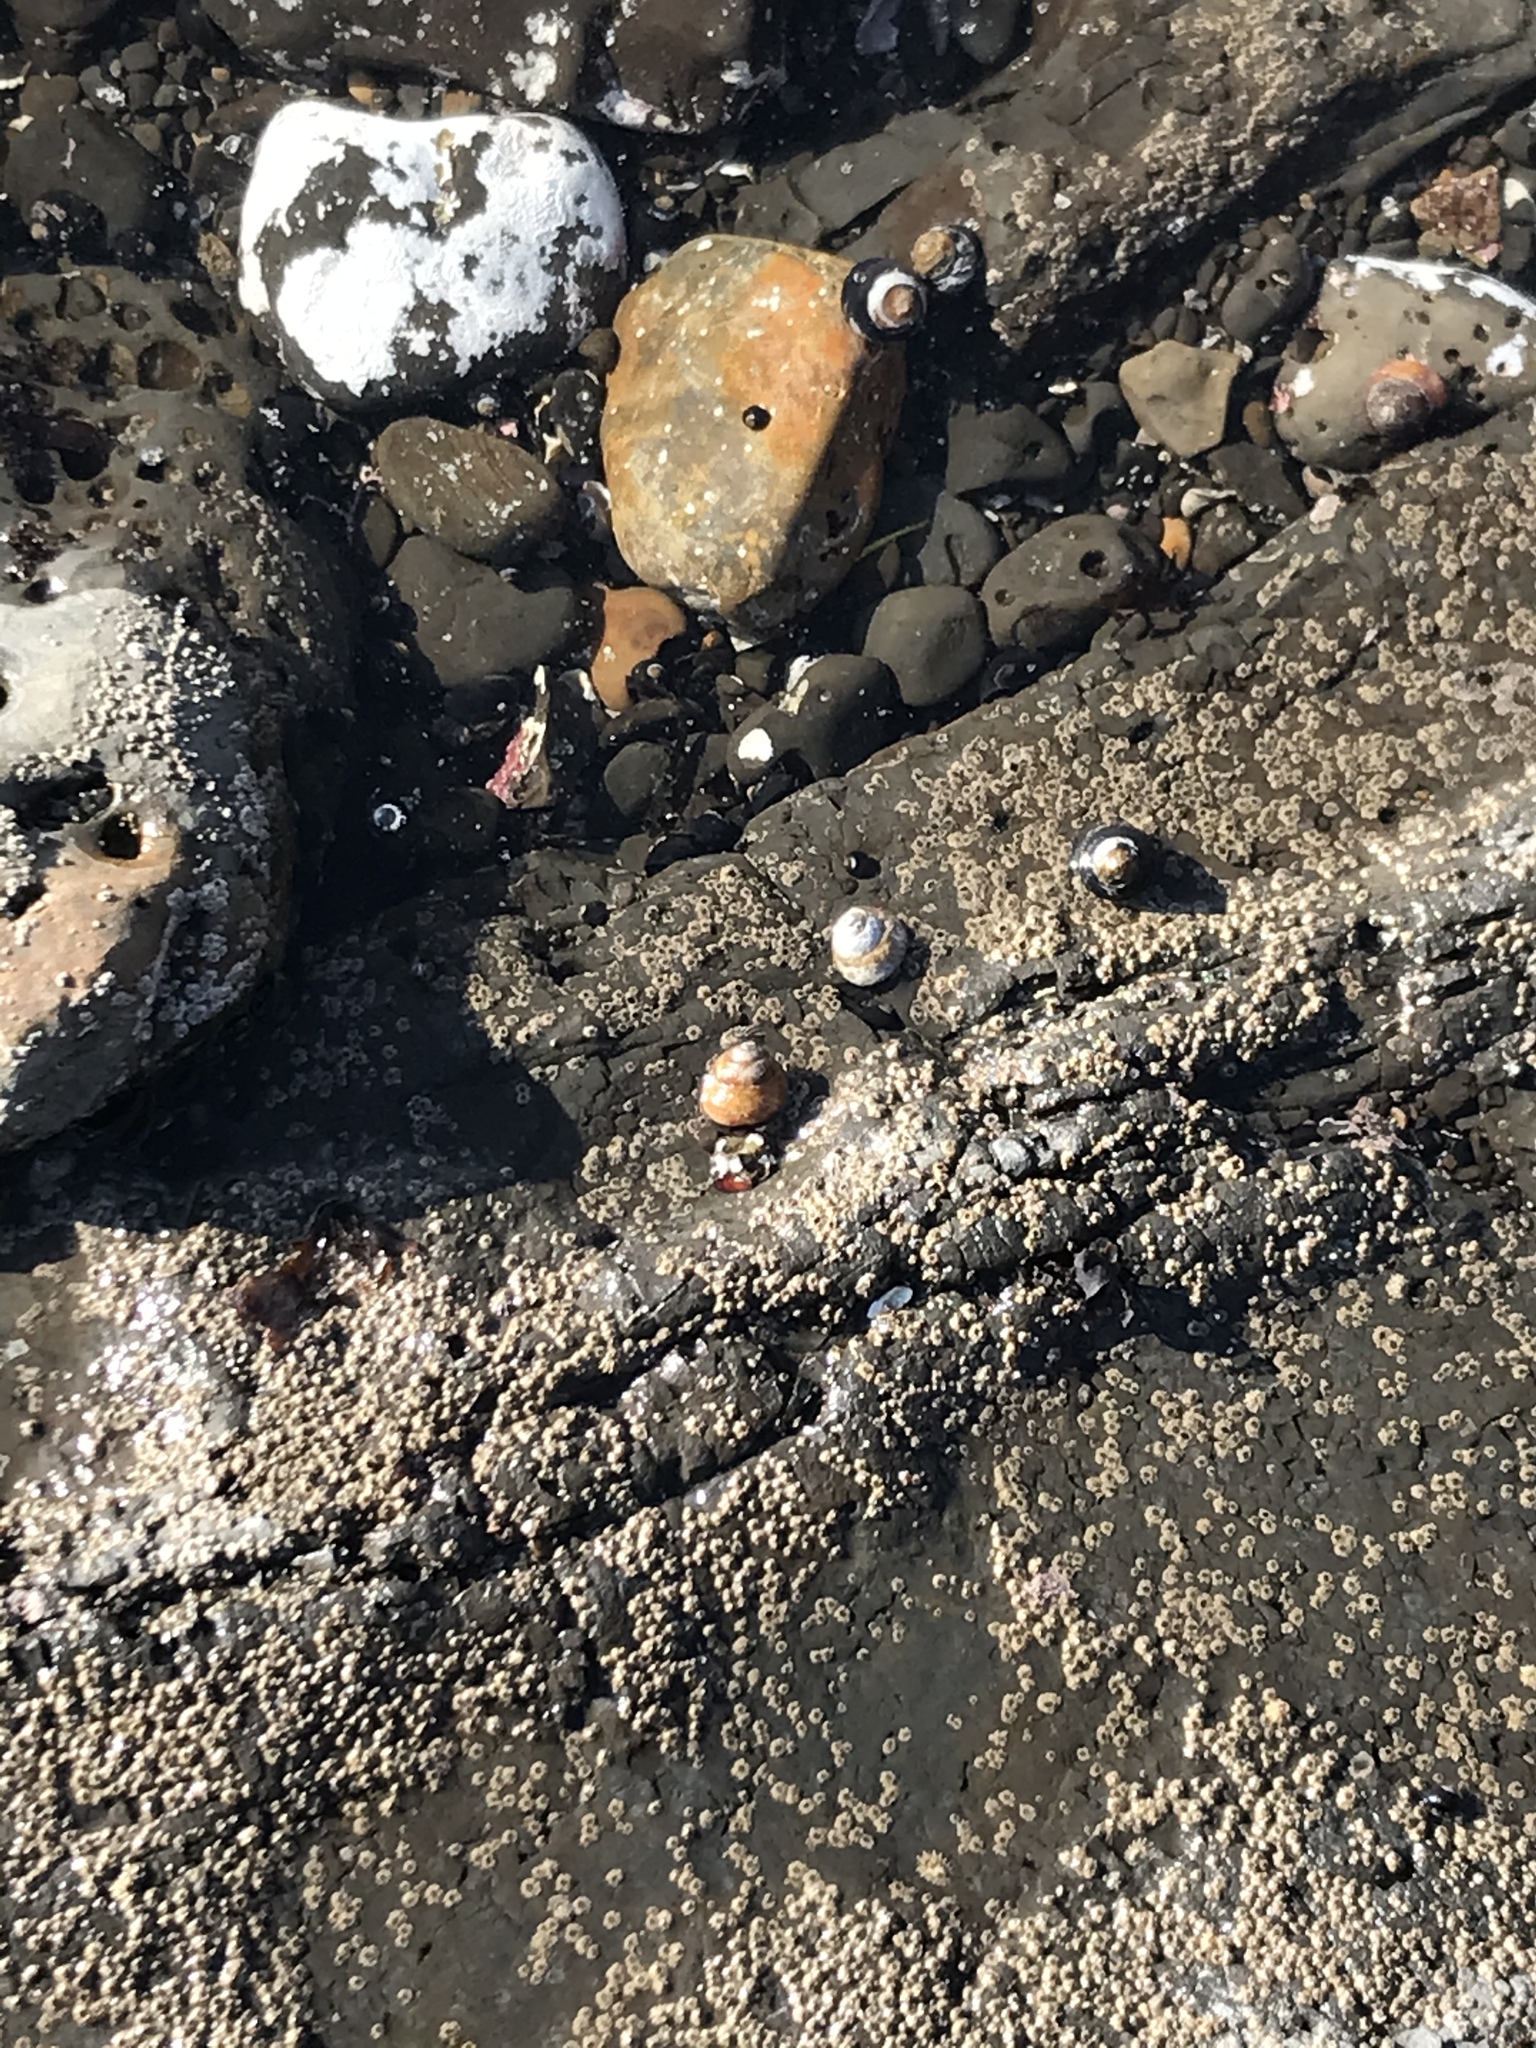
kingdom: Animalia
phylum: Mollusca
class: Gastropoda
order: Trochida
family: Tegulidae
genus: Tegula
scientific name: Tegula funebralis
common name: Black tegula
